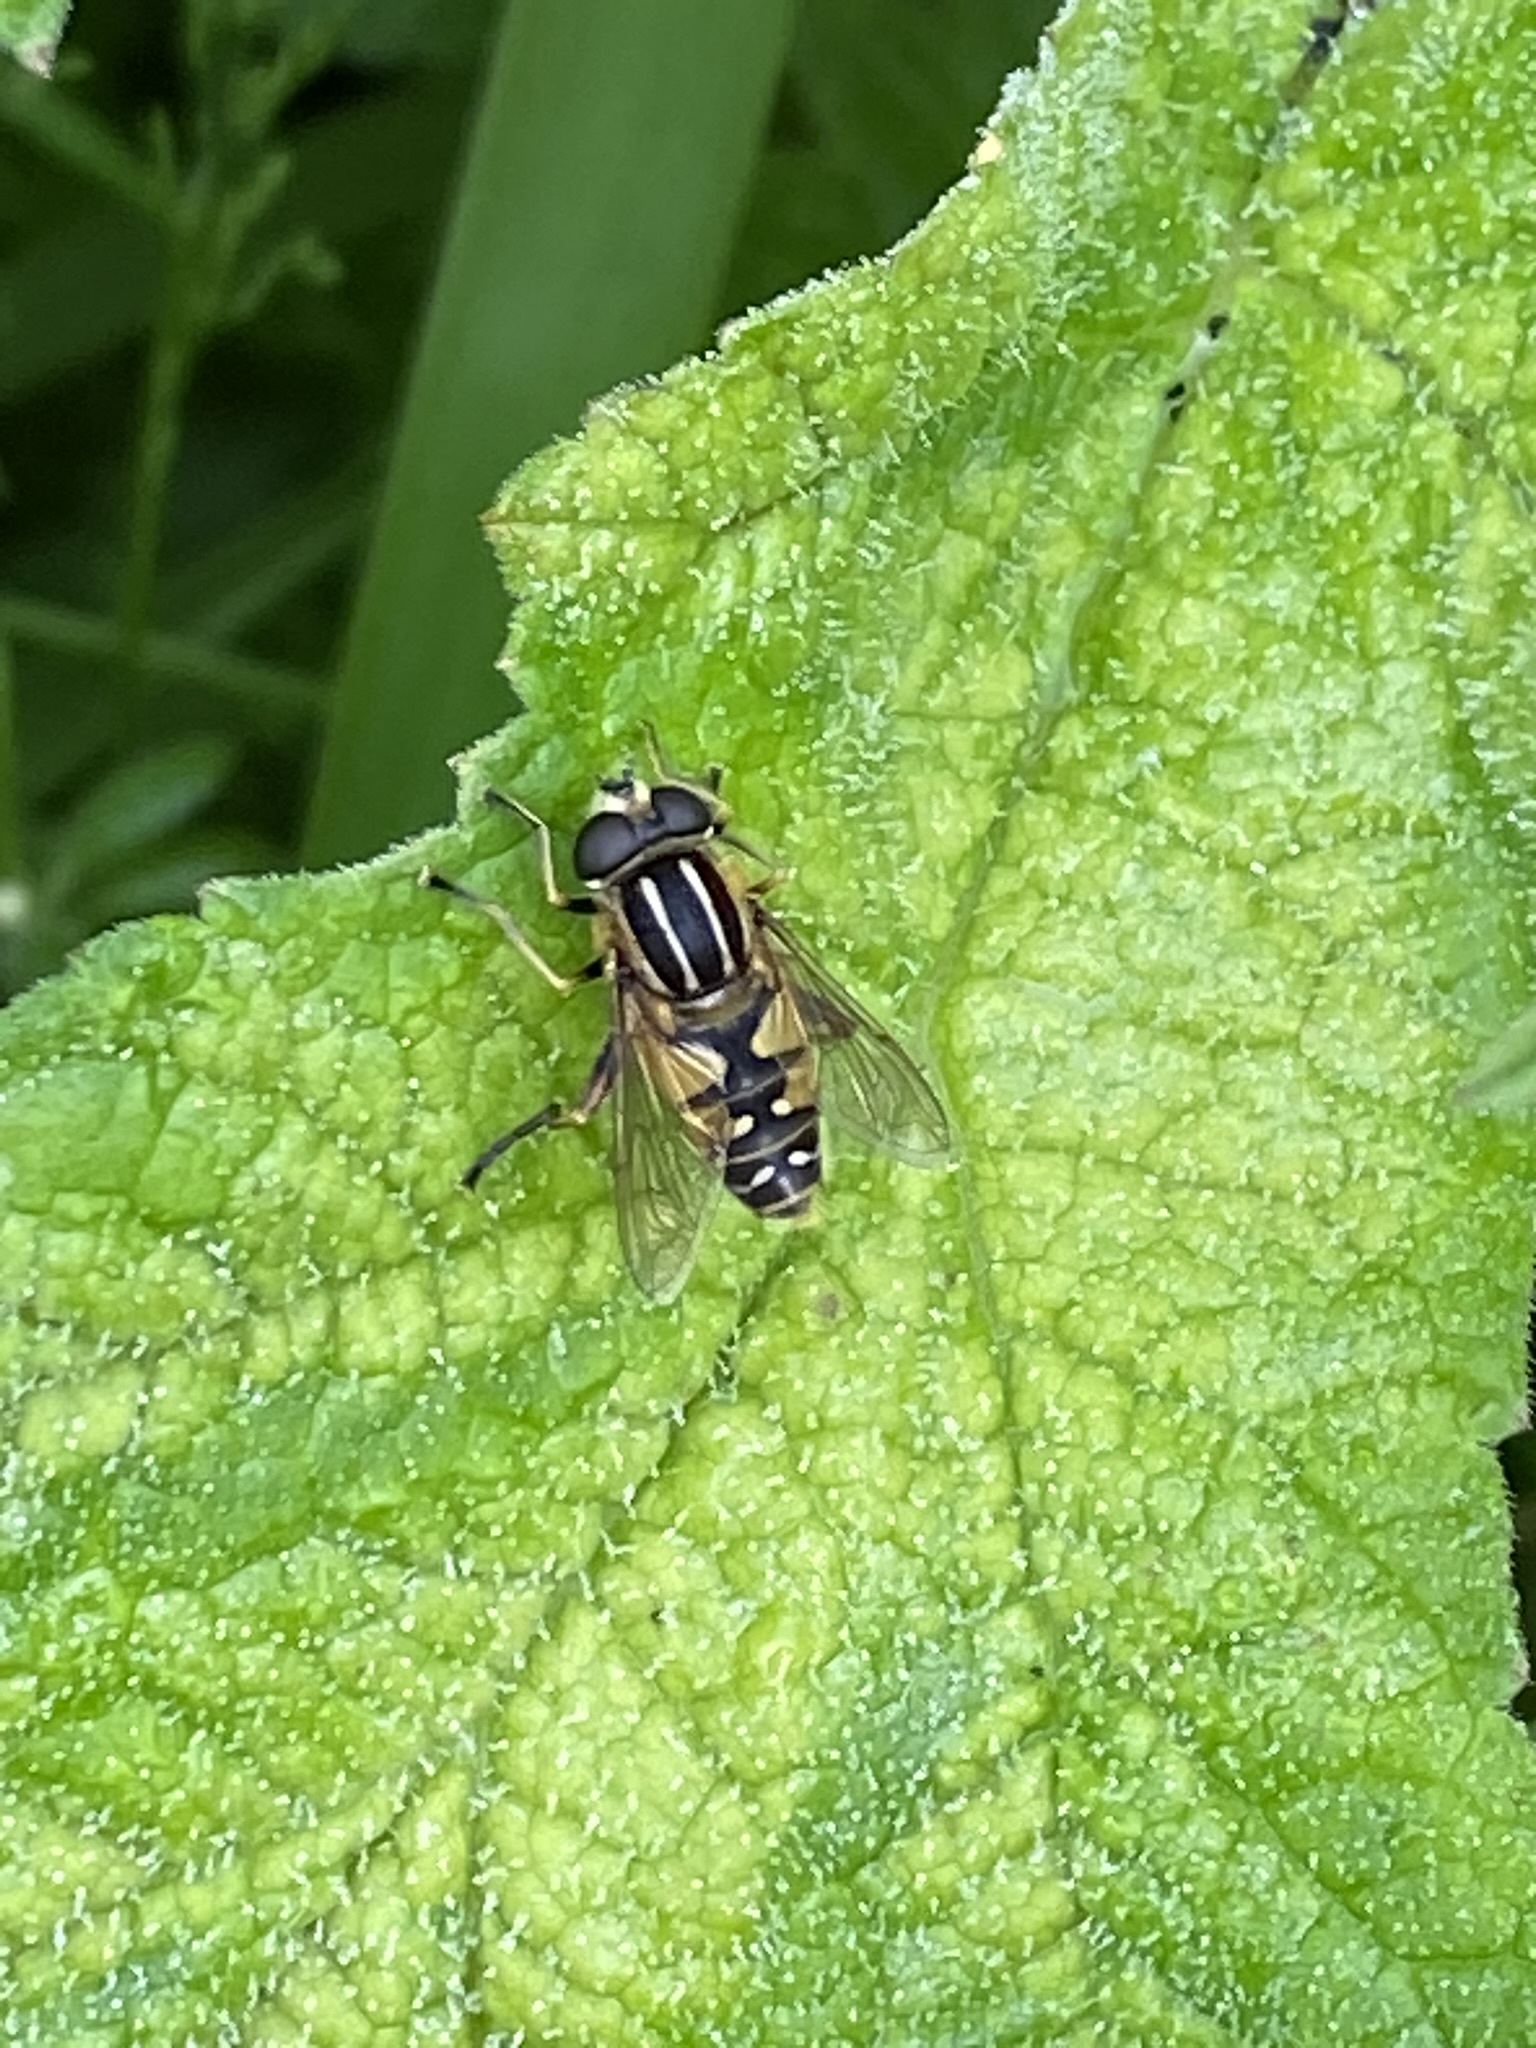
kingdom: Animalia
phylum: Arthropoda
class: Insecta
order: Diptera
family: Syrphidae
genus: Helophilus
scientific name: Helophilus pendulus
